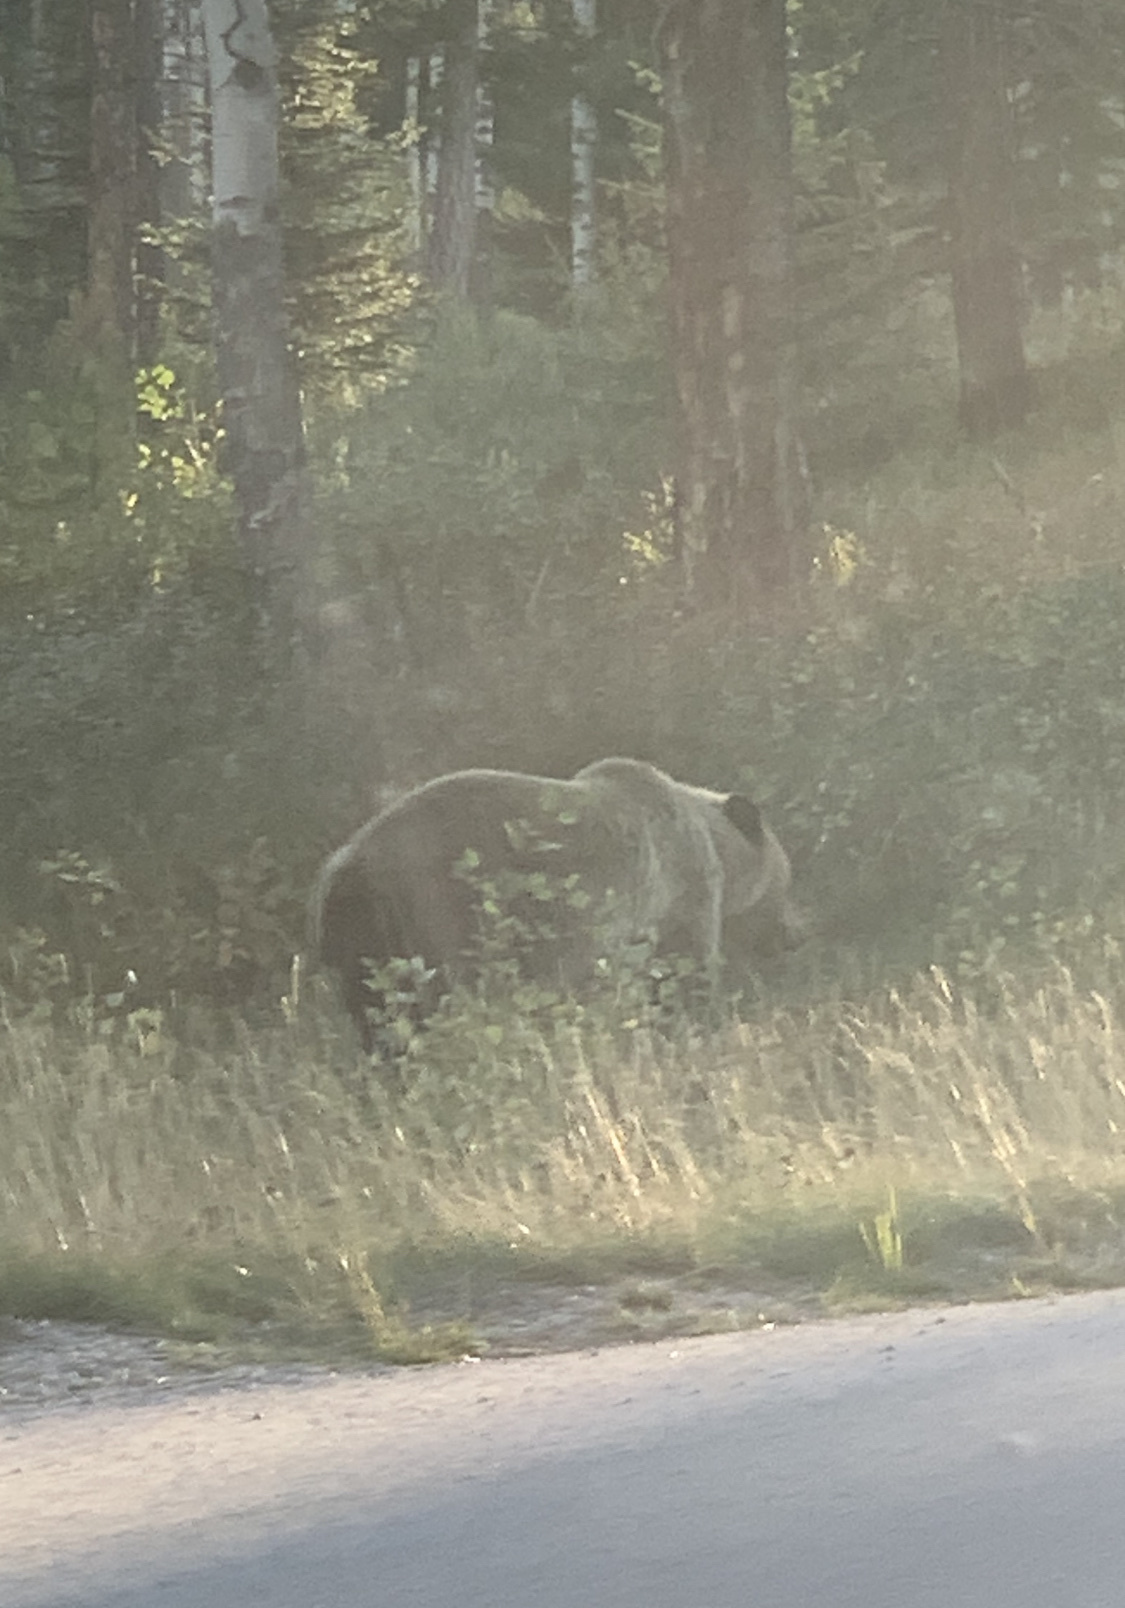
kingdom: Animalia
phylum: Chordata
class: Mammalia
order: Carnivora
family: Ursidae
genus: Ursus
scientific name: Ursus arctos
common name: Brown bear
